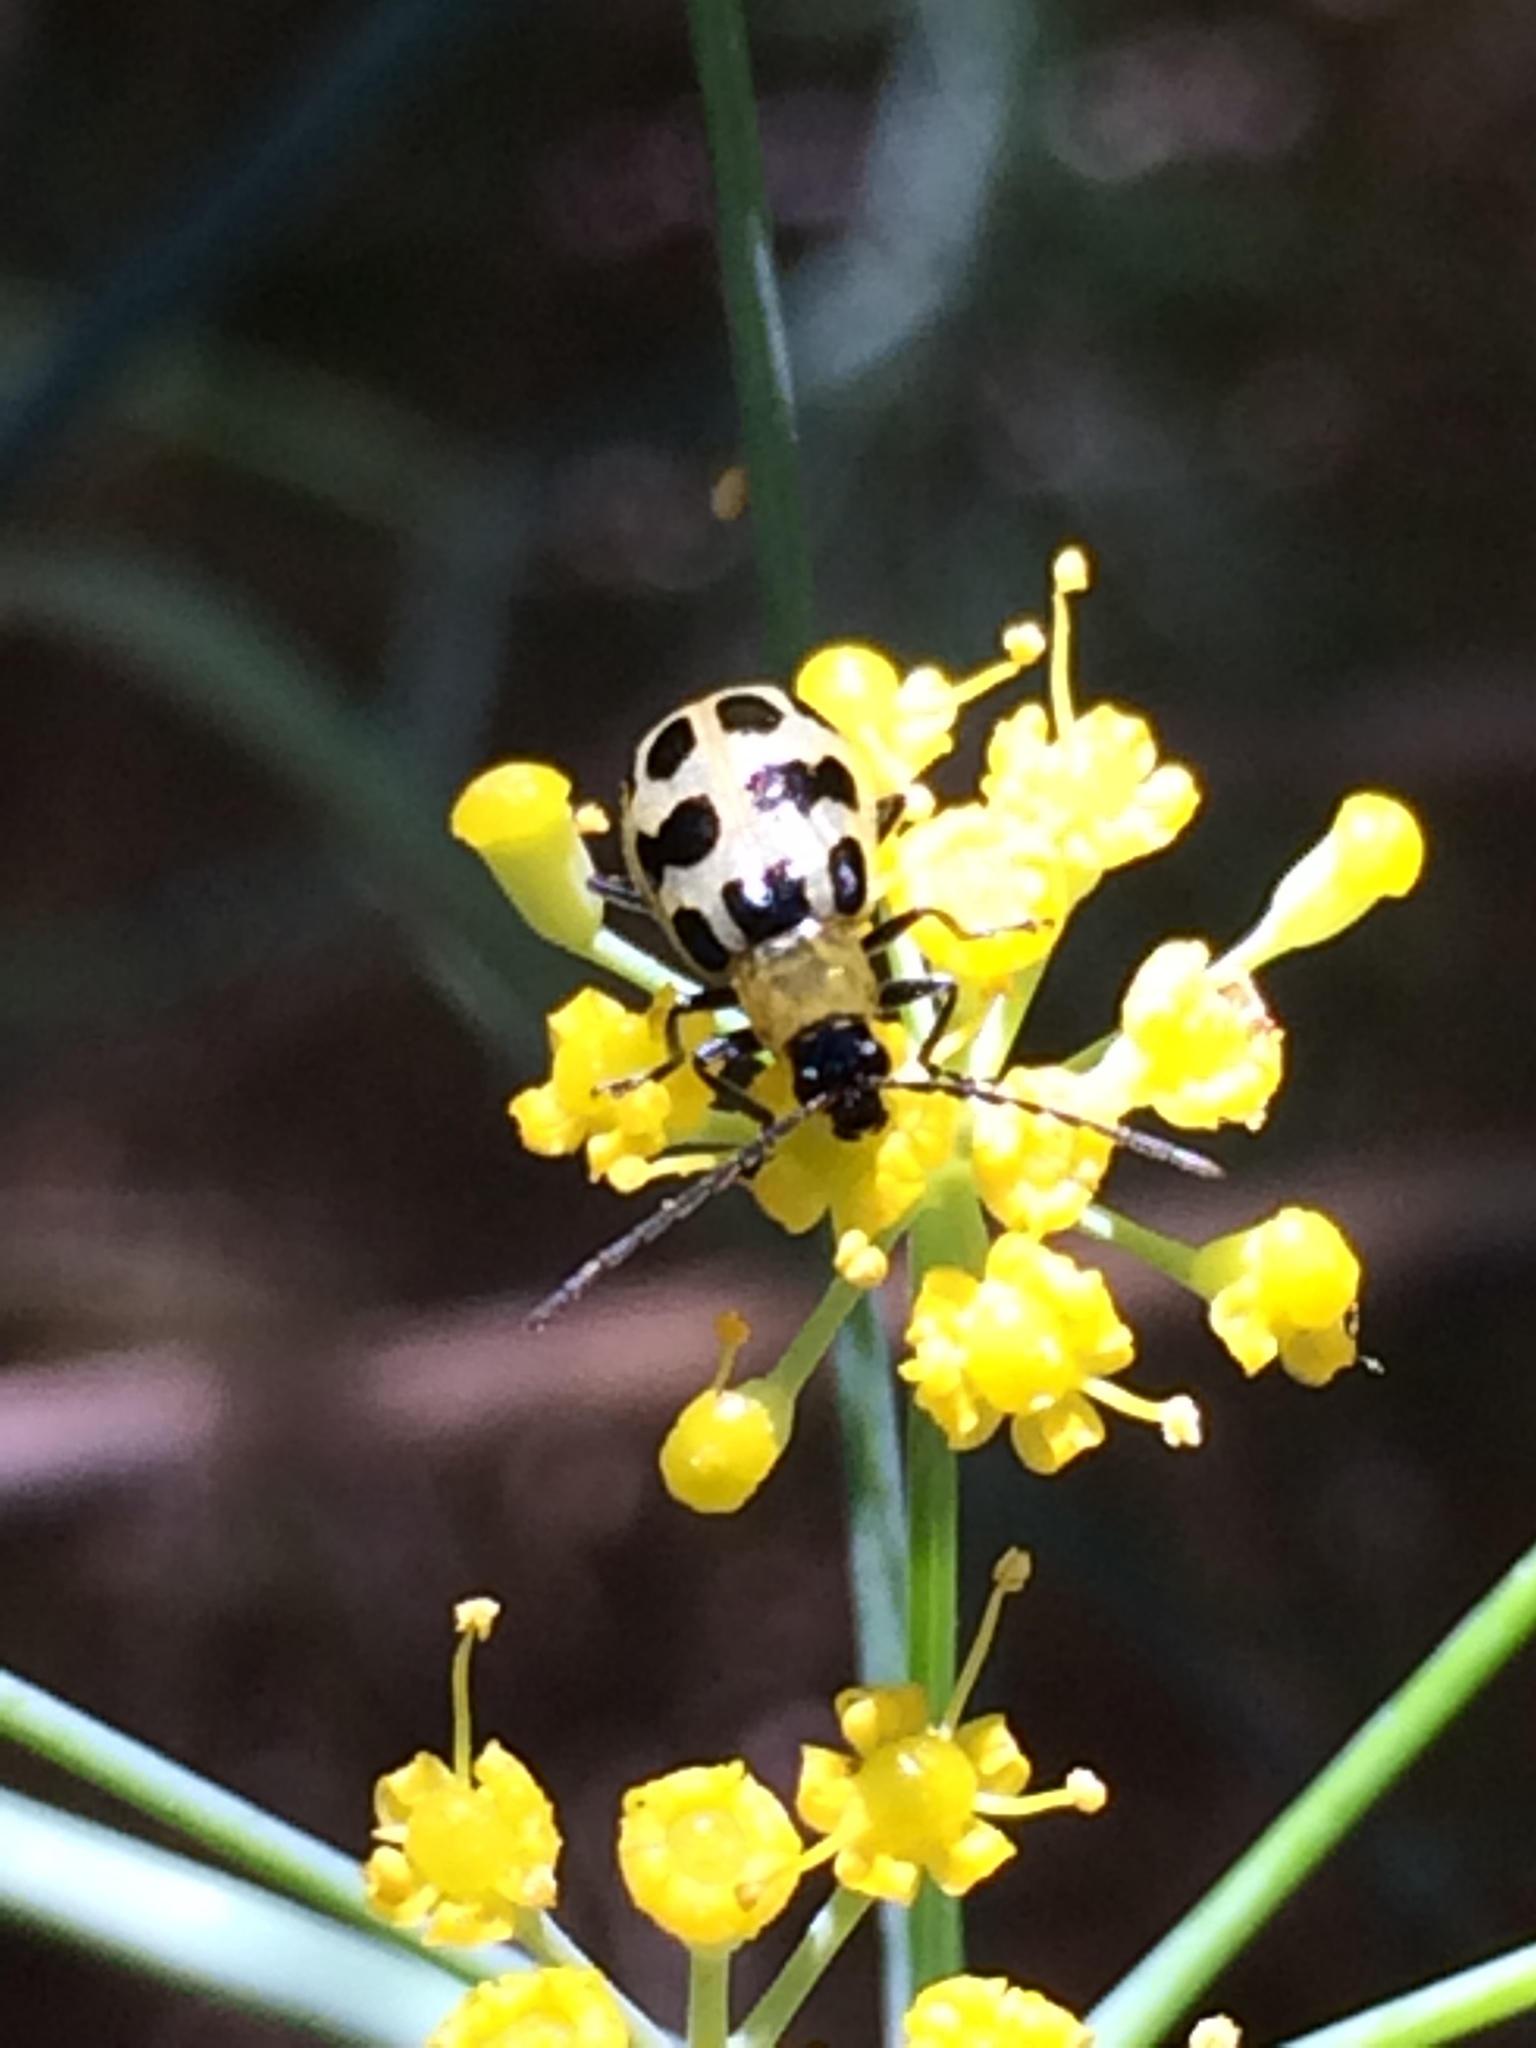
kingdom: Animalia
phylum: Arthropoda
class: Insecta
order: Coleoptera
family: Chrysomelidae
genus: Diabrotica
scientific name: Diabrotica undecimpunctata
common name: Spotted cucumber beetle
